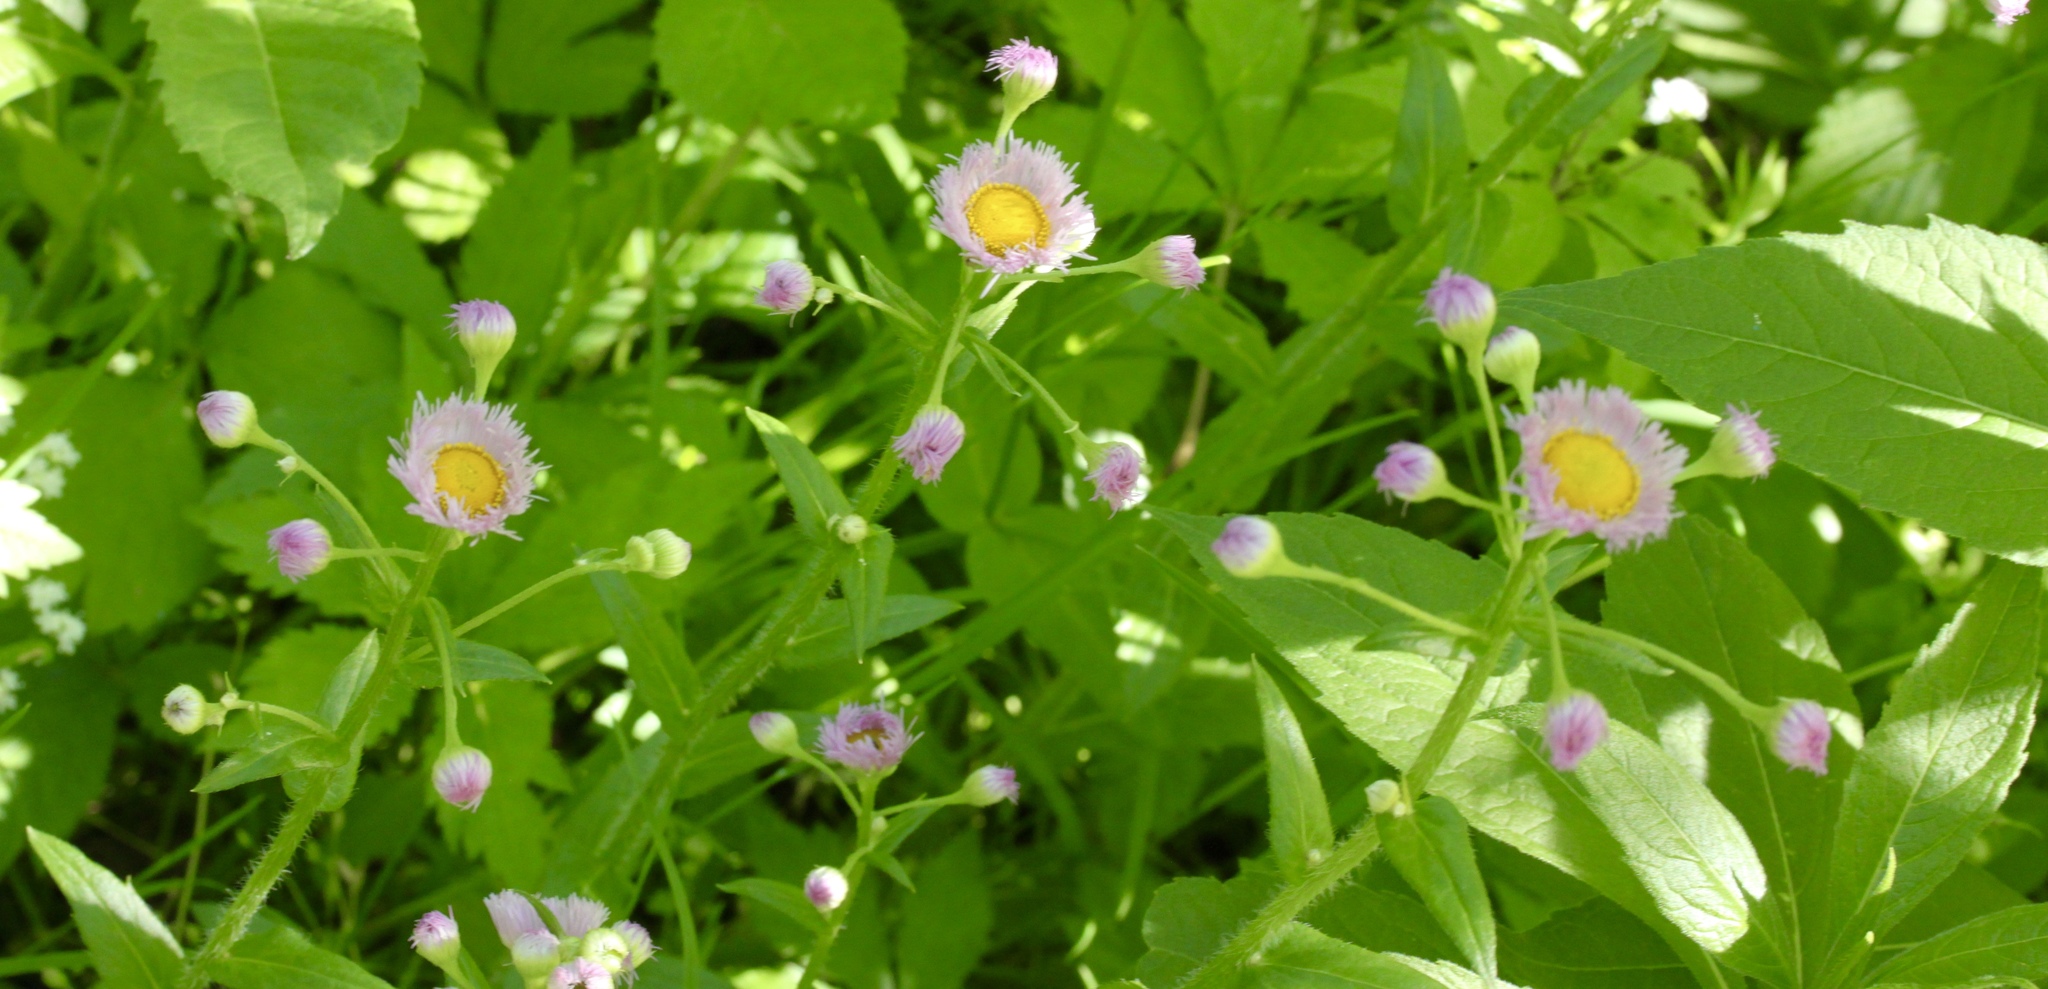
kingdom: Plantae
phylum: Tracheophyta
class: Magnoliopsida
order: Asterales
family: Asteraceae
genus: Erigeron
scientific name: Erigeron annuus
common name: Tall fleabane
